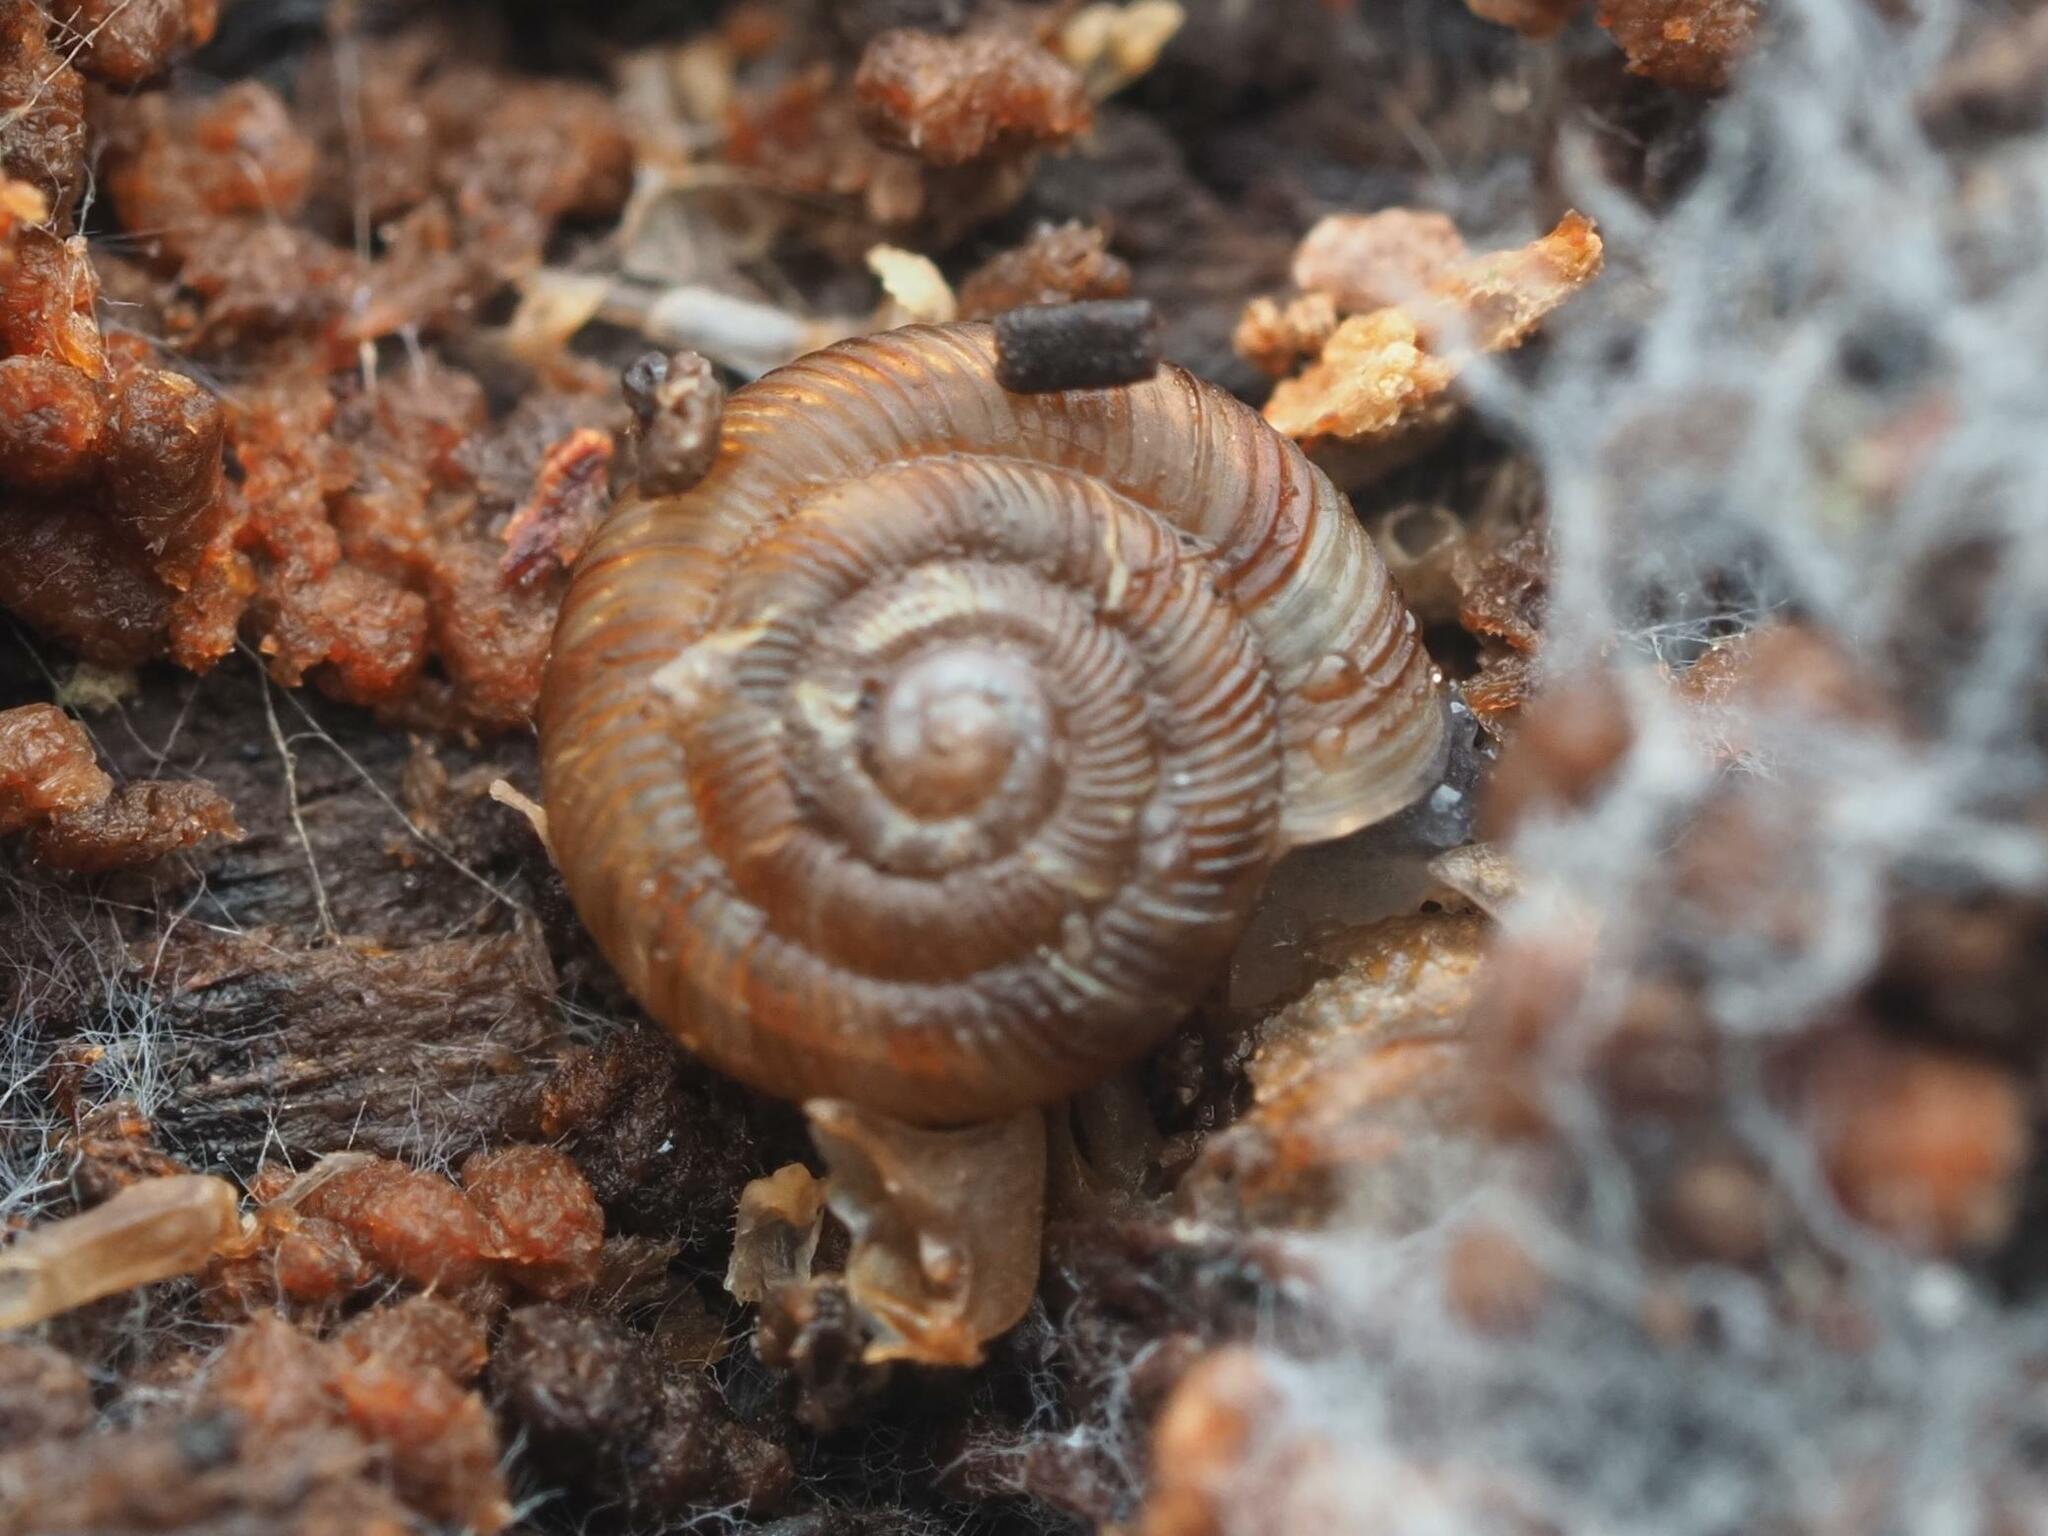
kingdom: Animalia
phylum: Mollusca
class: Gastropoda
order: Stylommatophora
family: Discidae
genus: Discus
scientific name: Discus rotundatus
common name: Rounded snail
